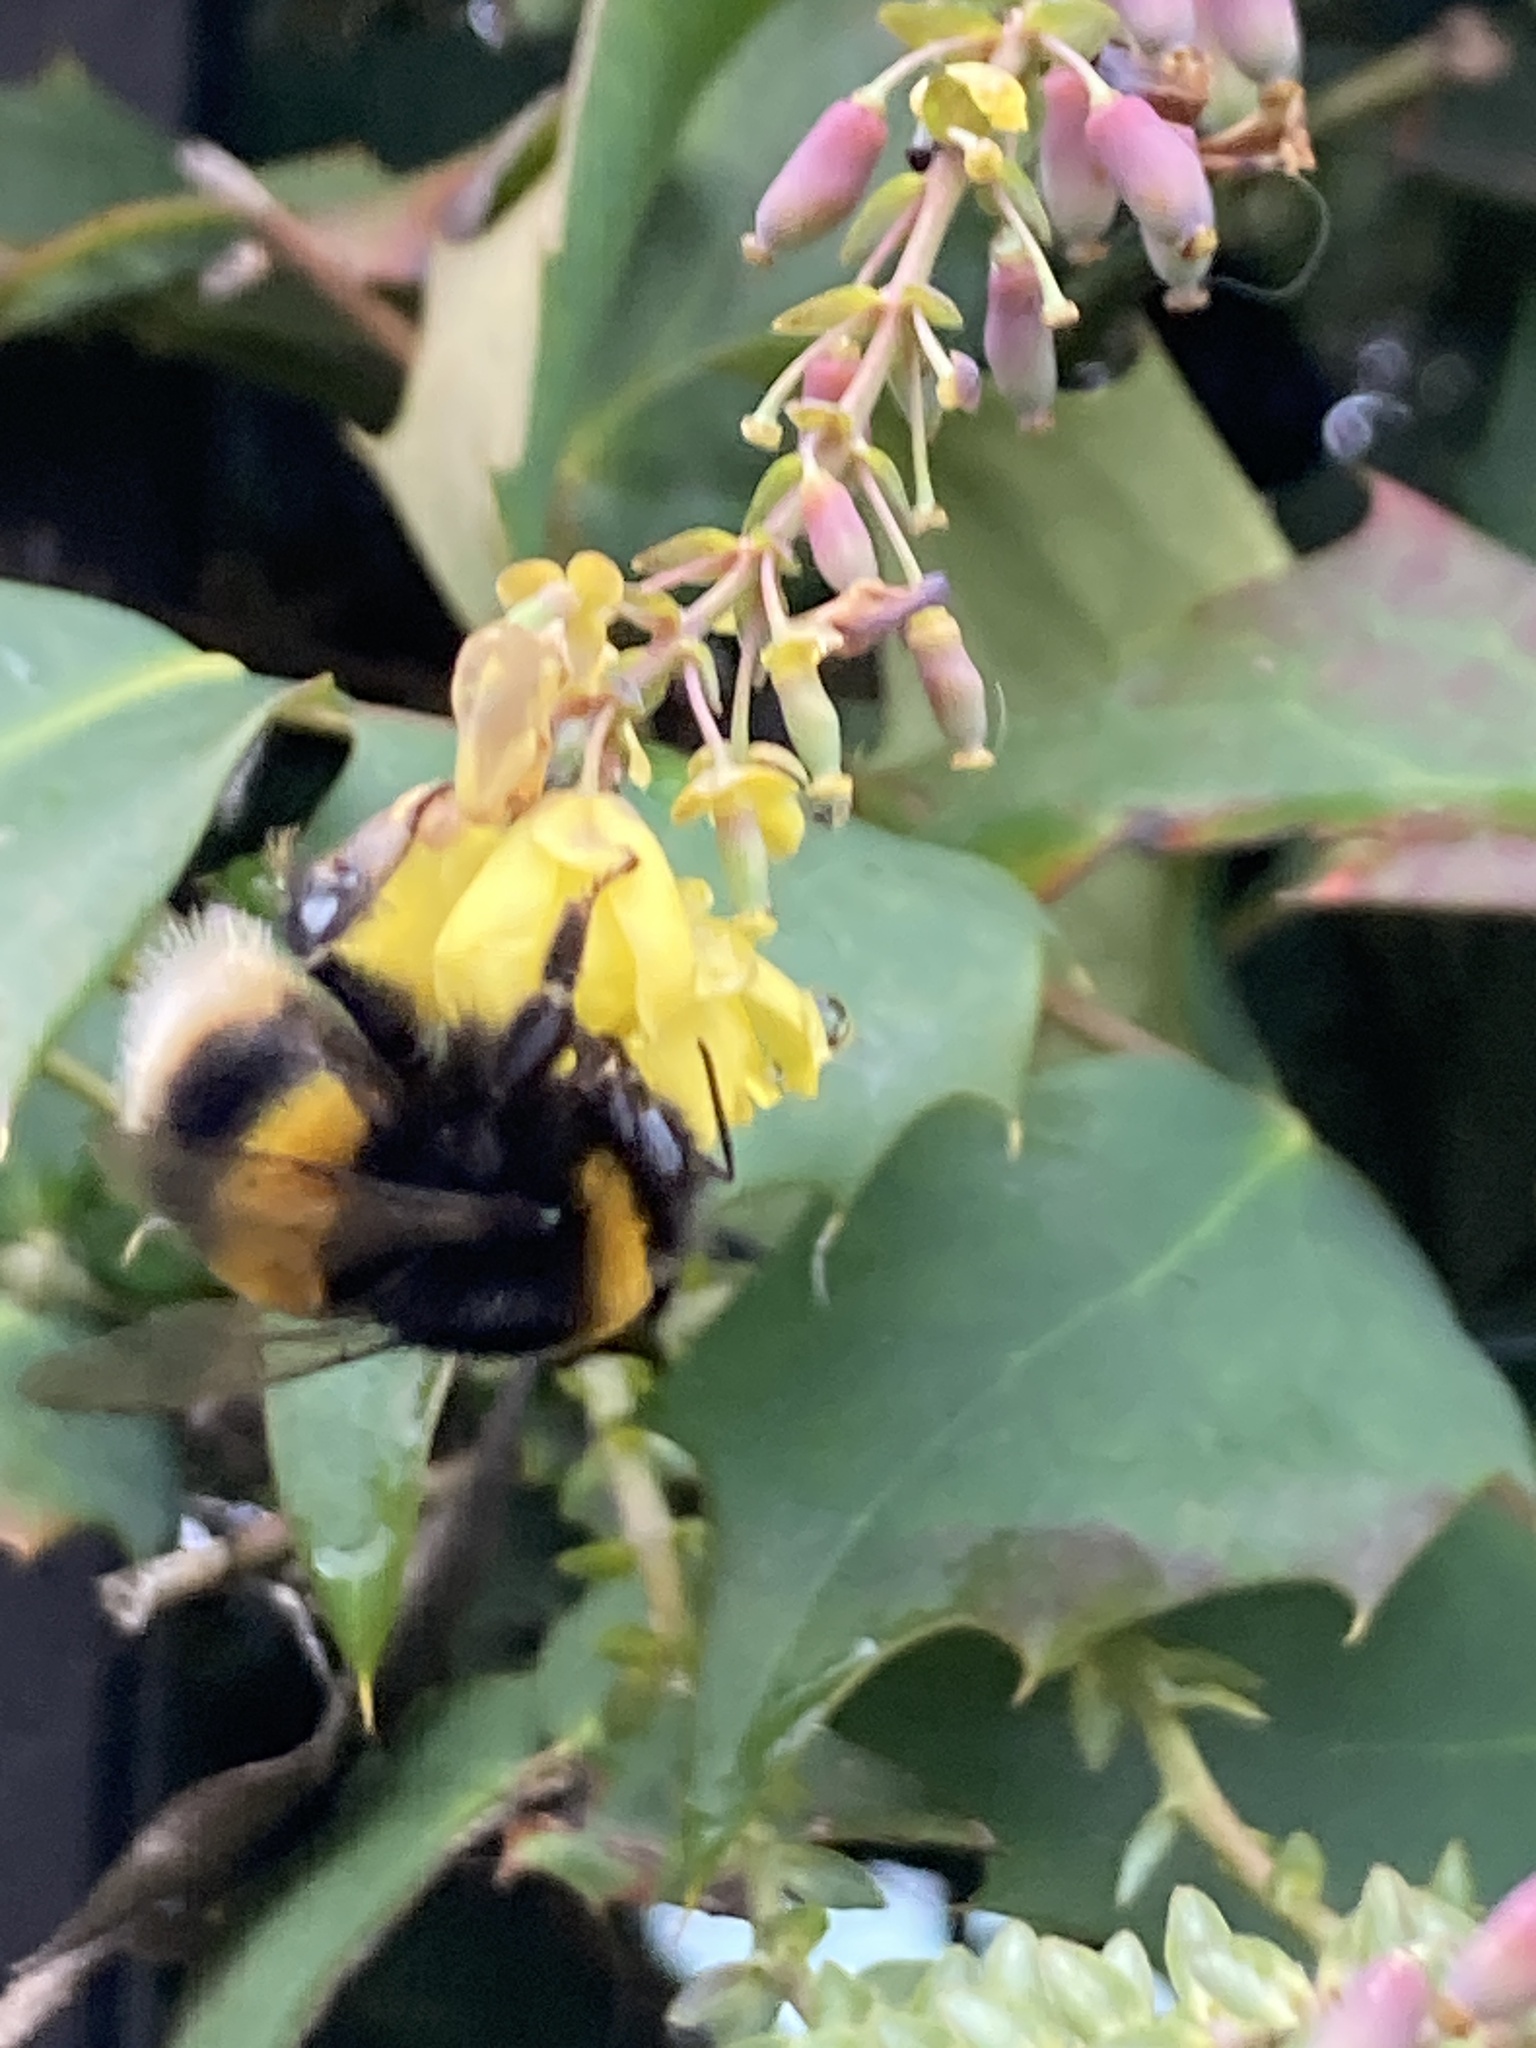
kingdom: Animalia
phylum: Arthropoda
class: Insecta
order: Hymenoptera
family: Apidae
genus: Bombus
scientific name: Bombus terrestris
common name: Buff-tailed bumblebee
